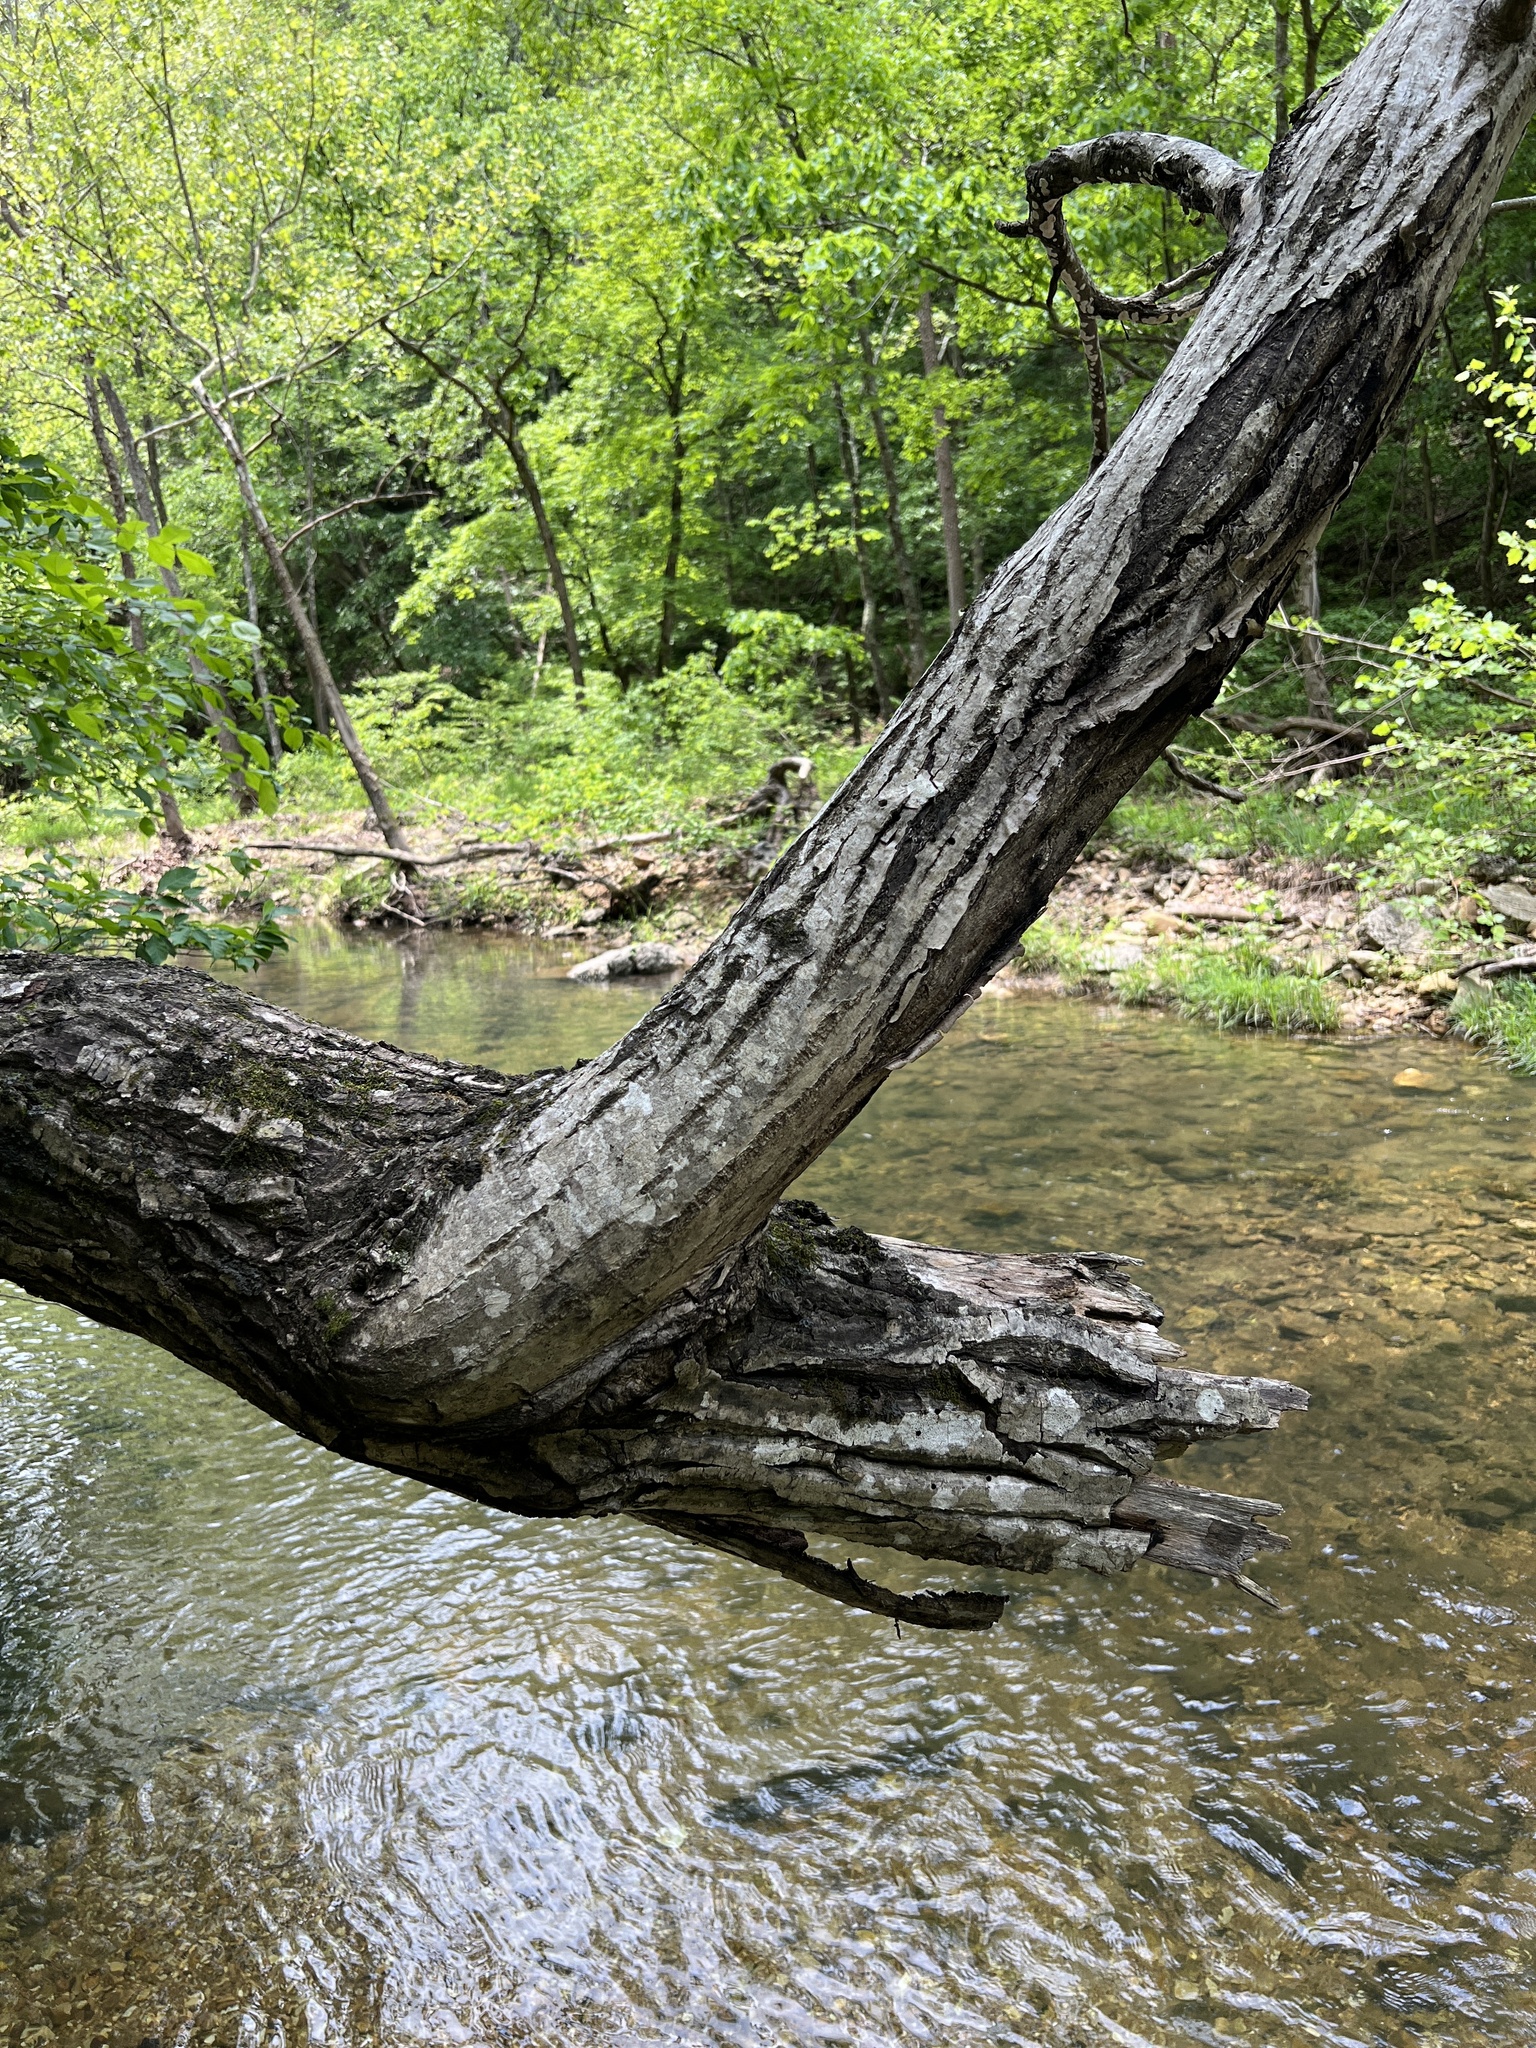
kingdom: Plantae
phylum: Tracheophyta
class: Magnoliopsida
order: Fagales
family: Juglandaceae
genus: Juglans
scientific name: Juglans cinerea
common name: Butternut
